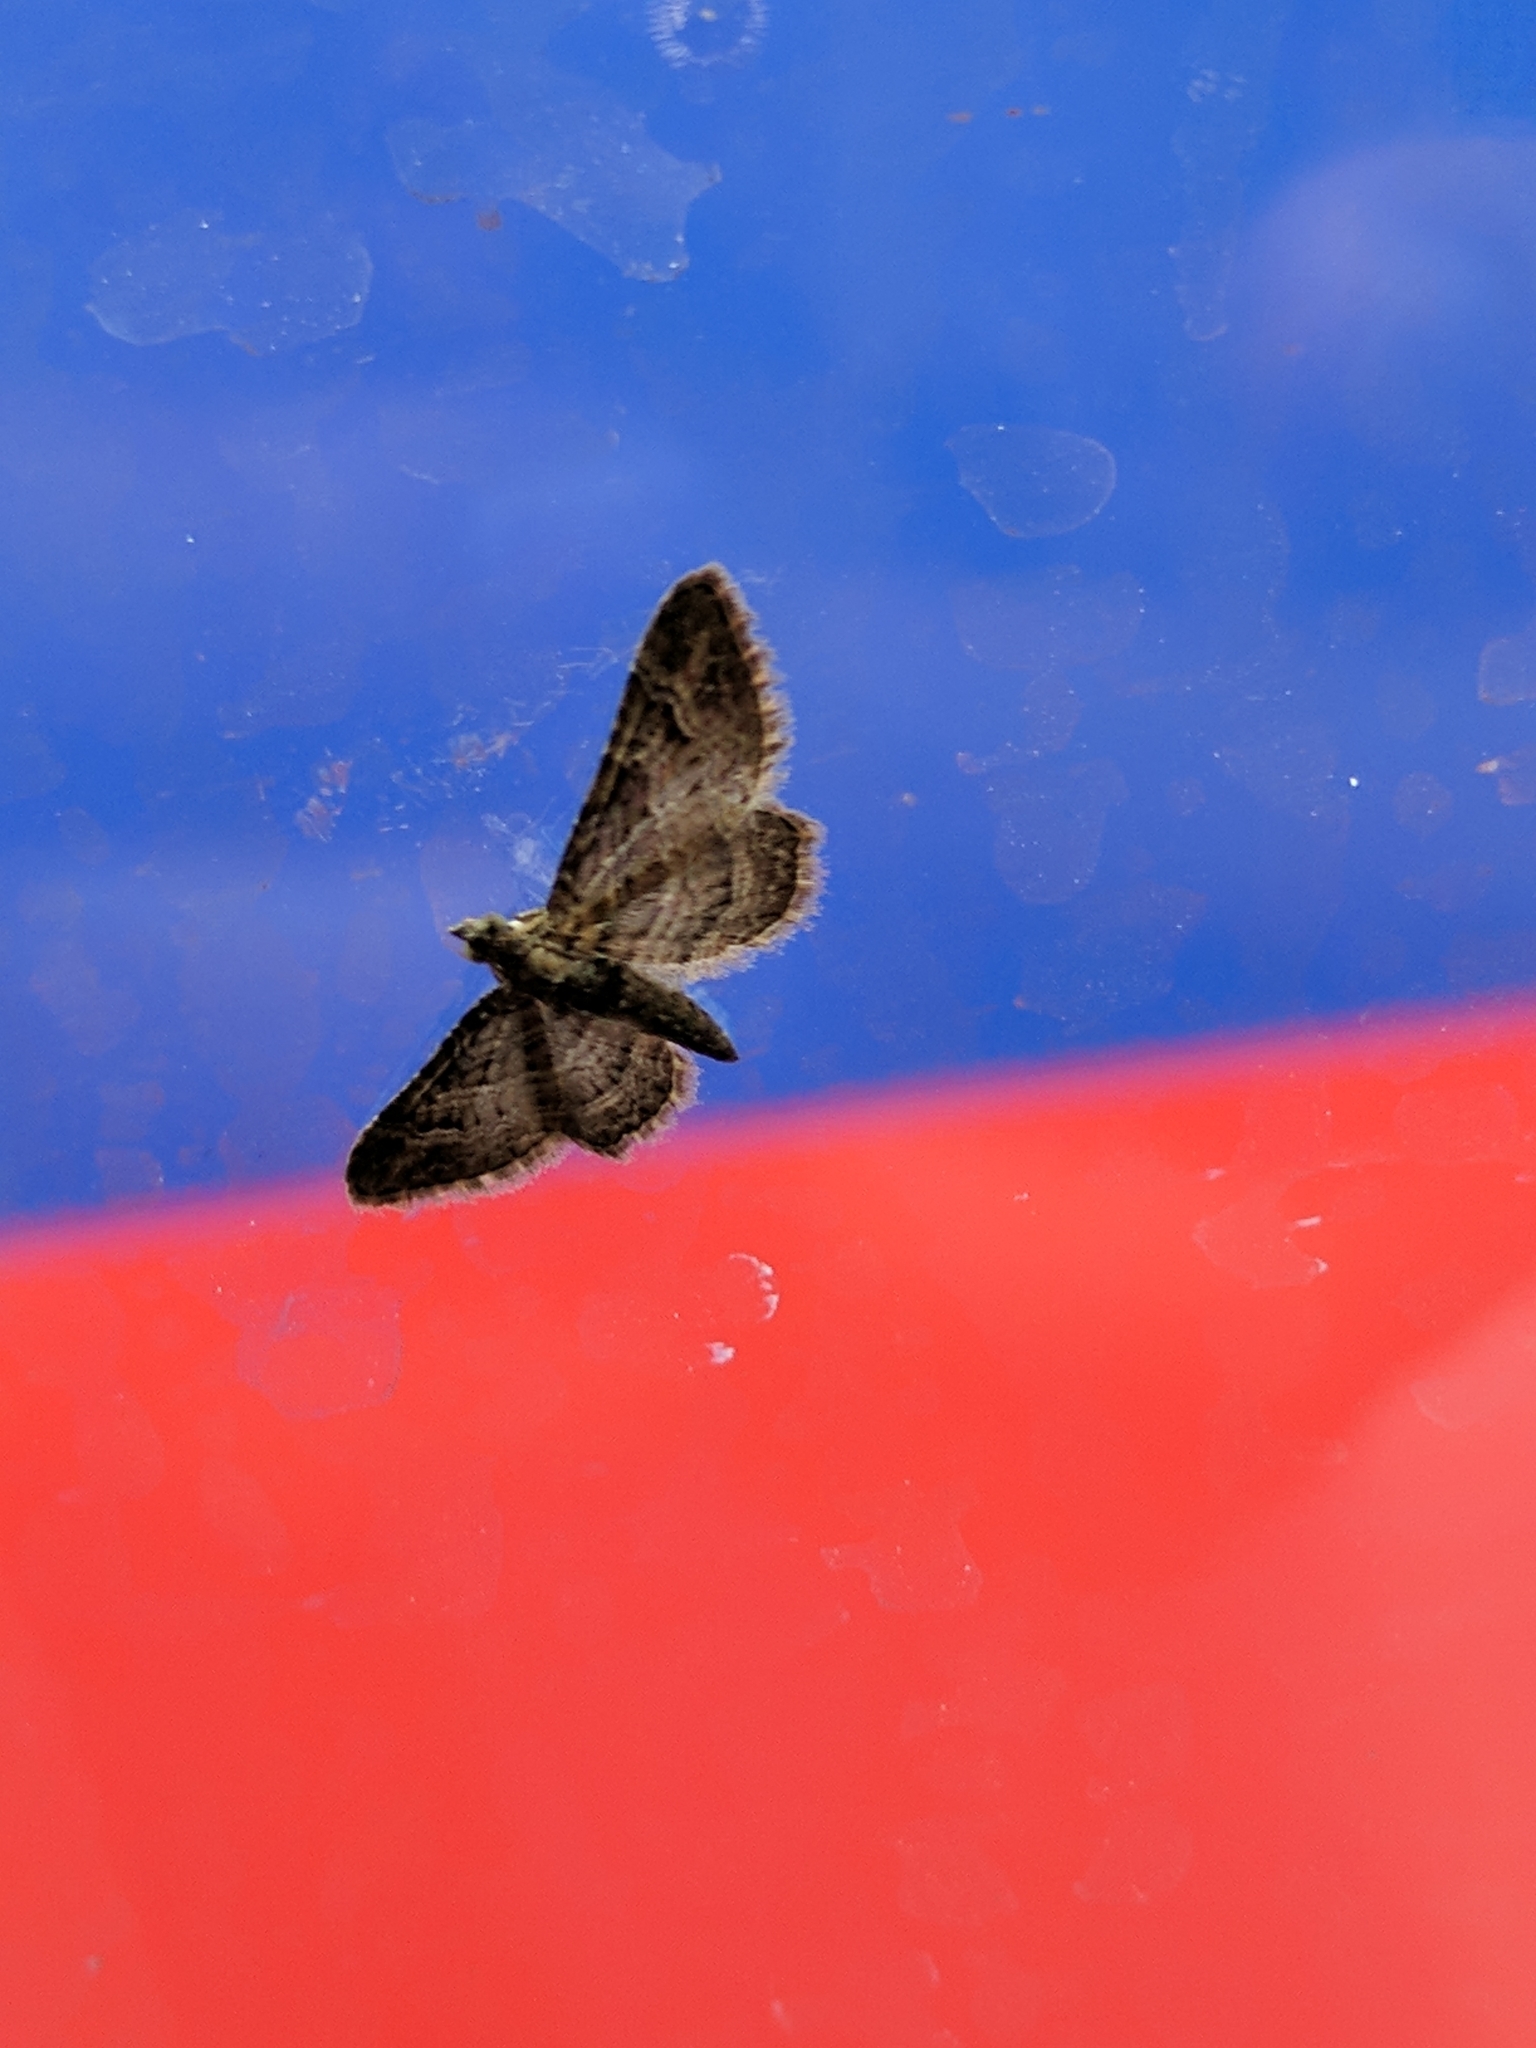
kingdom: Animalia
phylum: Arthropoda
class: Insecta
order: Lepidoptera
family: Geometridae
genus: Gymnoscelis
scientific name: Gymnoscelis rufifasciata
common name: Double-striped pug
